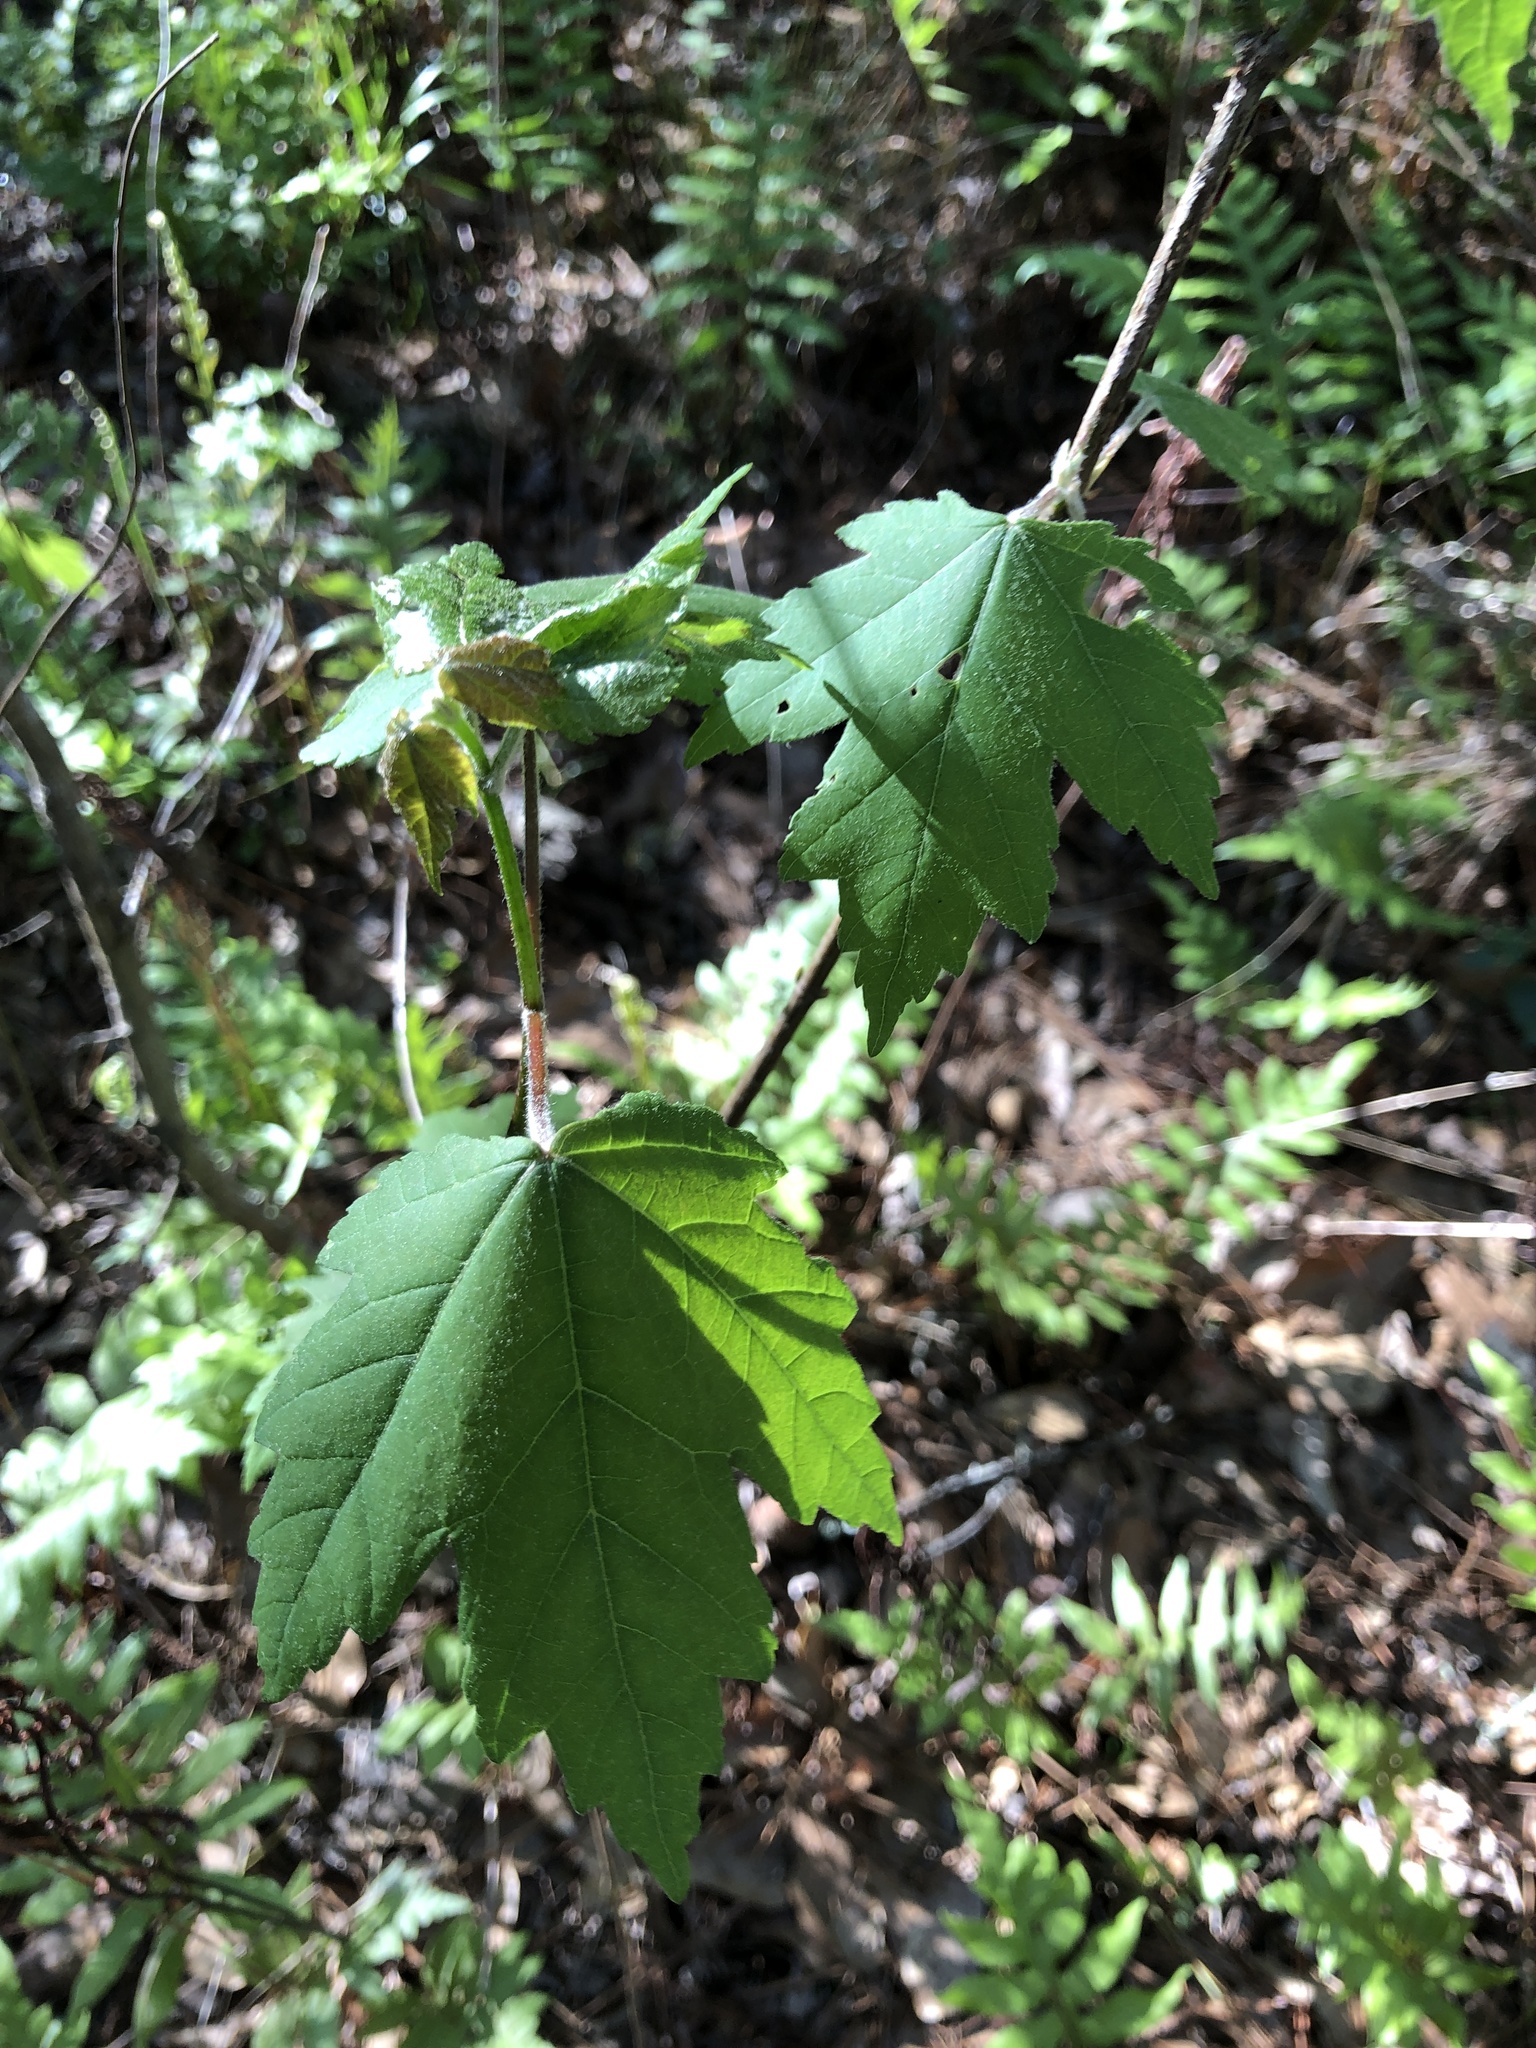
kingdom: Plantae
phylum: Tracheophyta
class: Magnoliopsida
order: Sapindales
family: Sapindaceae
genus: Acer
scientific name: Acer rubrum
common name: Red maple
